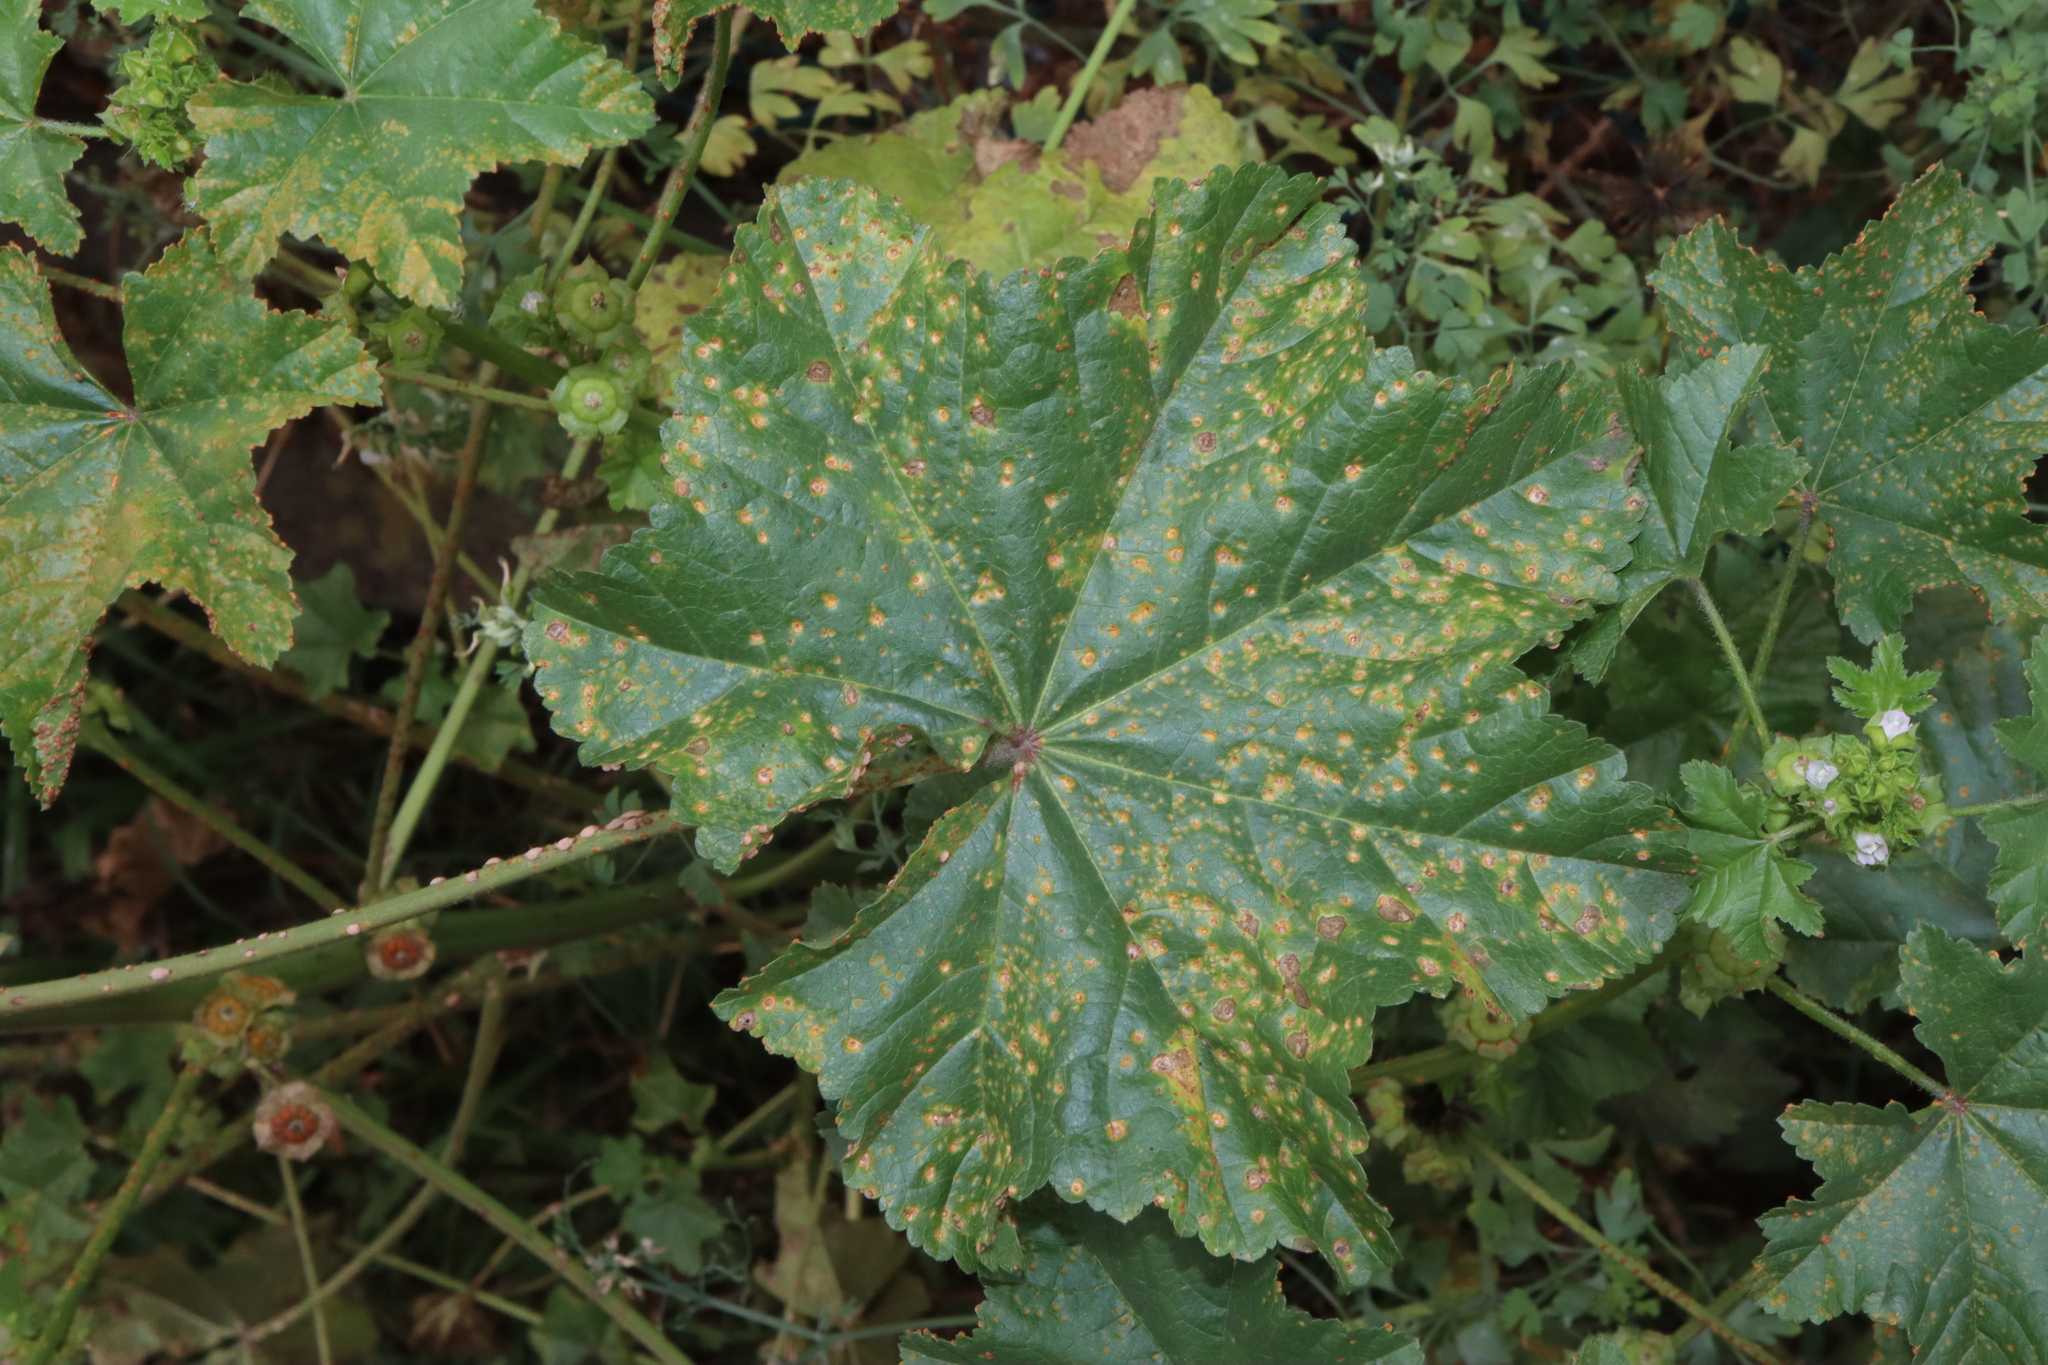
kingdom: Fungi
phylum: Basidiomycota
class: Pucciniomycetes
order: Pucciniales
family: Pucciniaceae
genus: Puccinia
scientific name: Puccinia malvacearum
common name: Hollyhock rust
